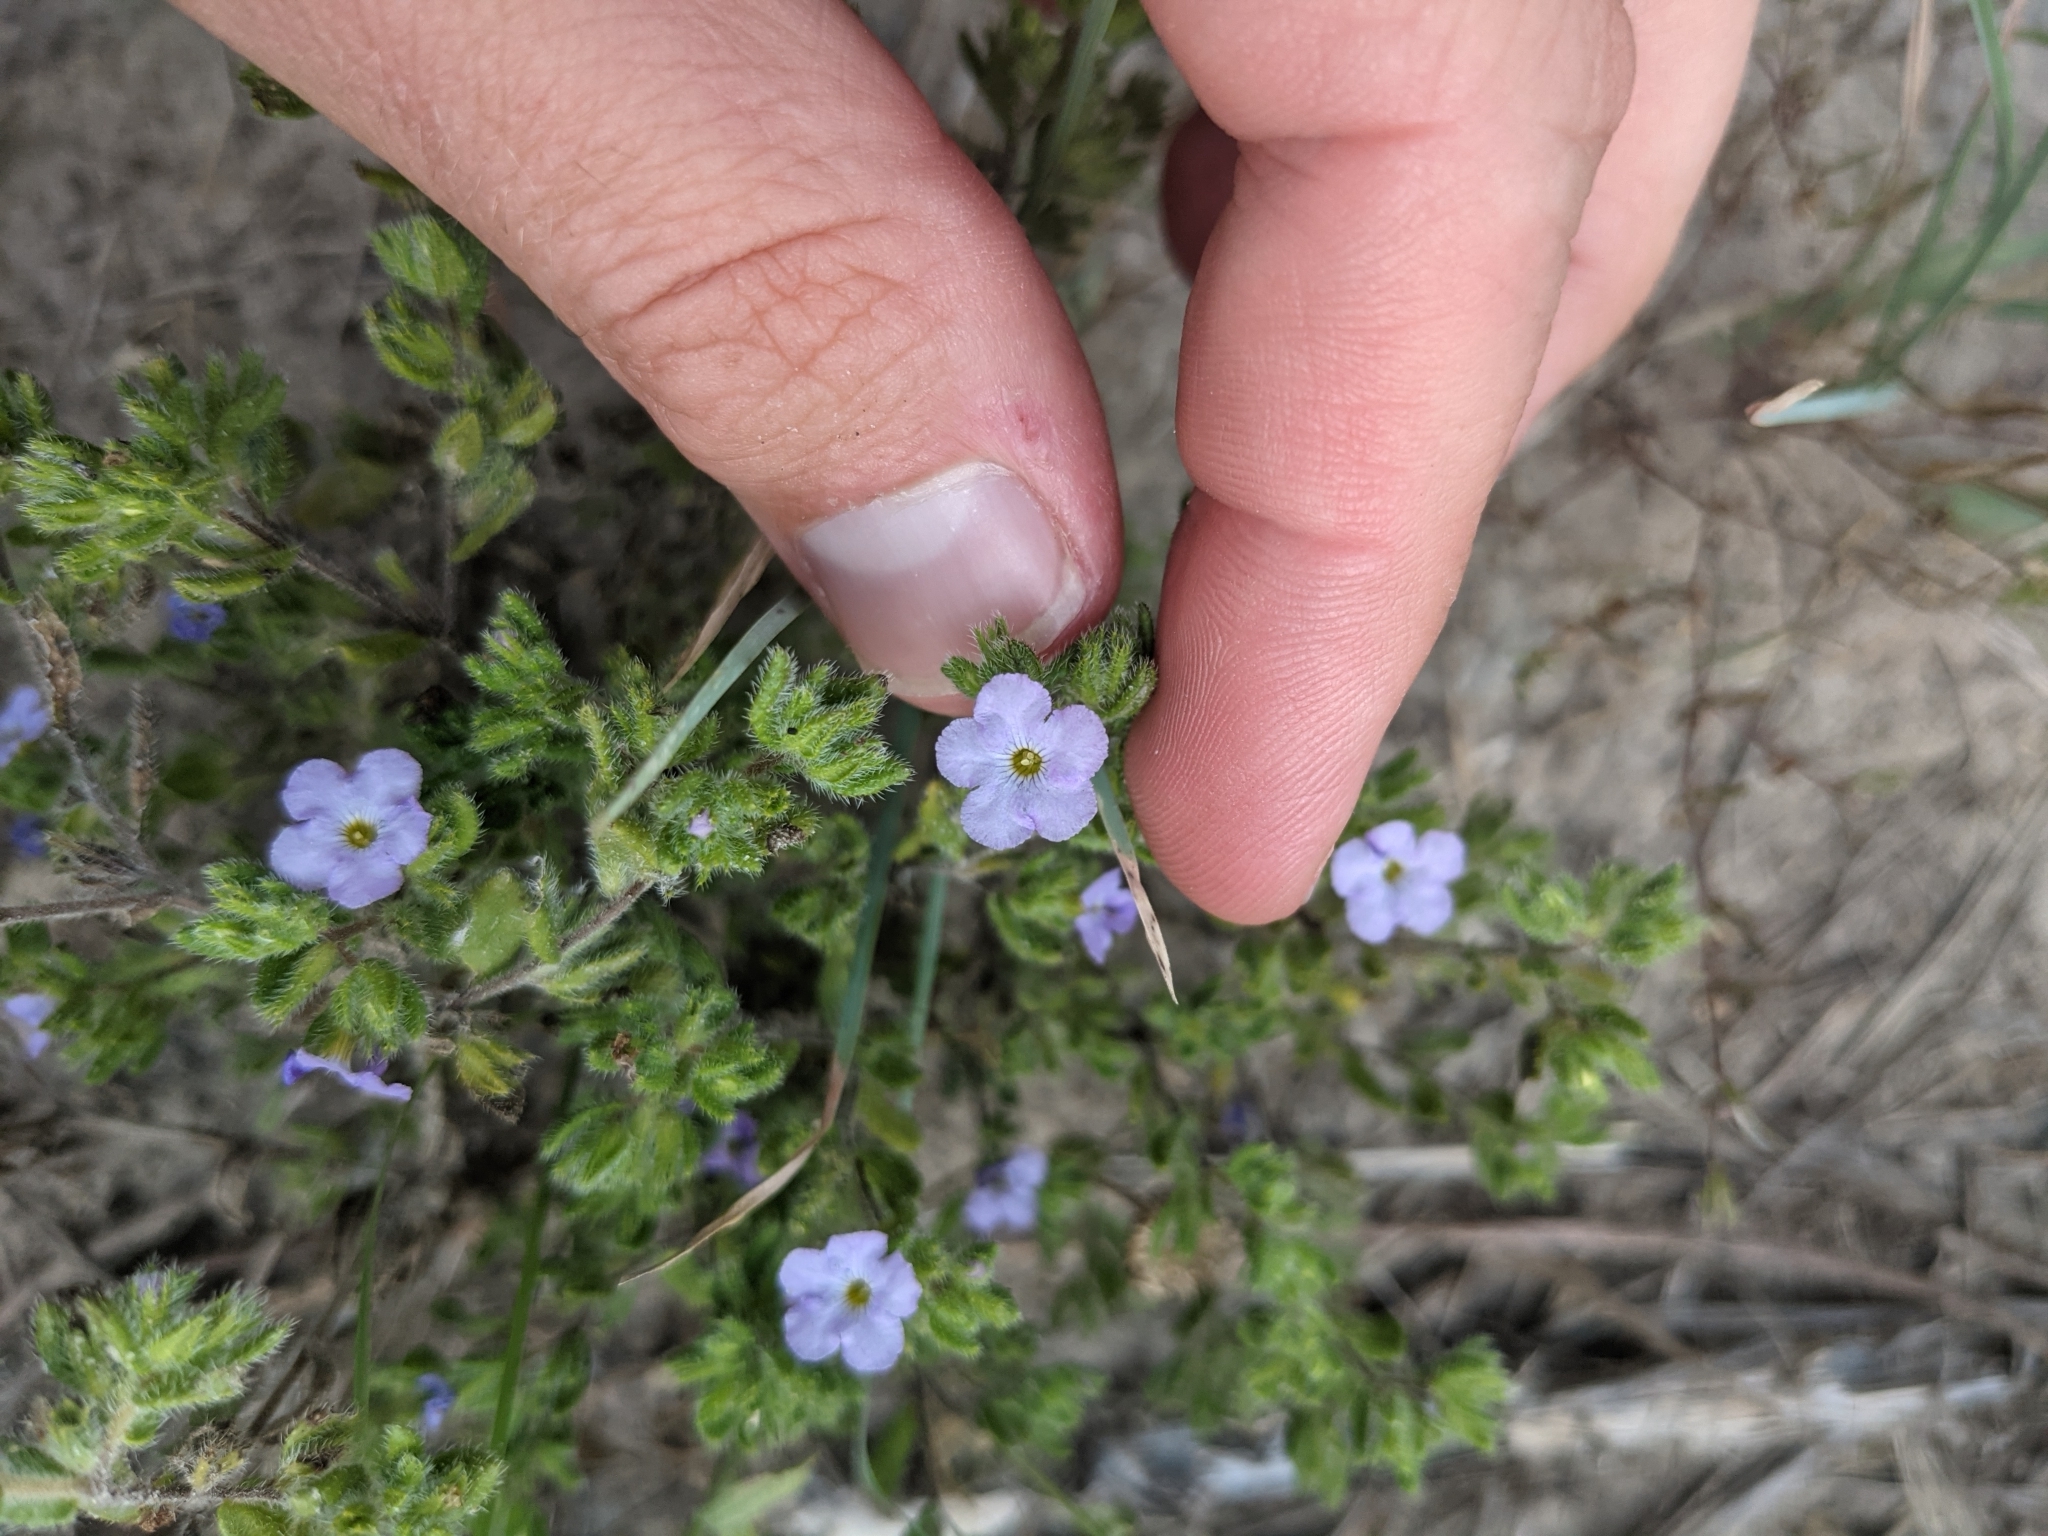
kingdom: Plantae
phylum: Tracheophyta
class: Magnoliopsida
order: Boraginales
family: Namaceae
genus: Nama
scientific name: Nama hispida
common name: Bristly nama
